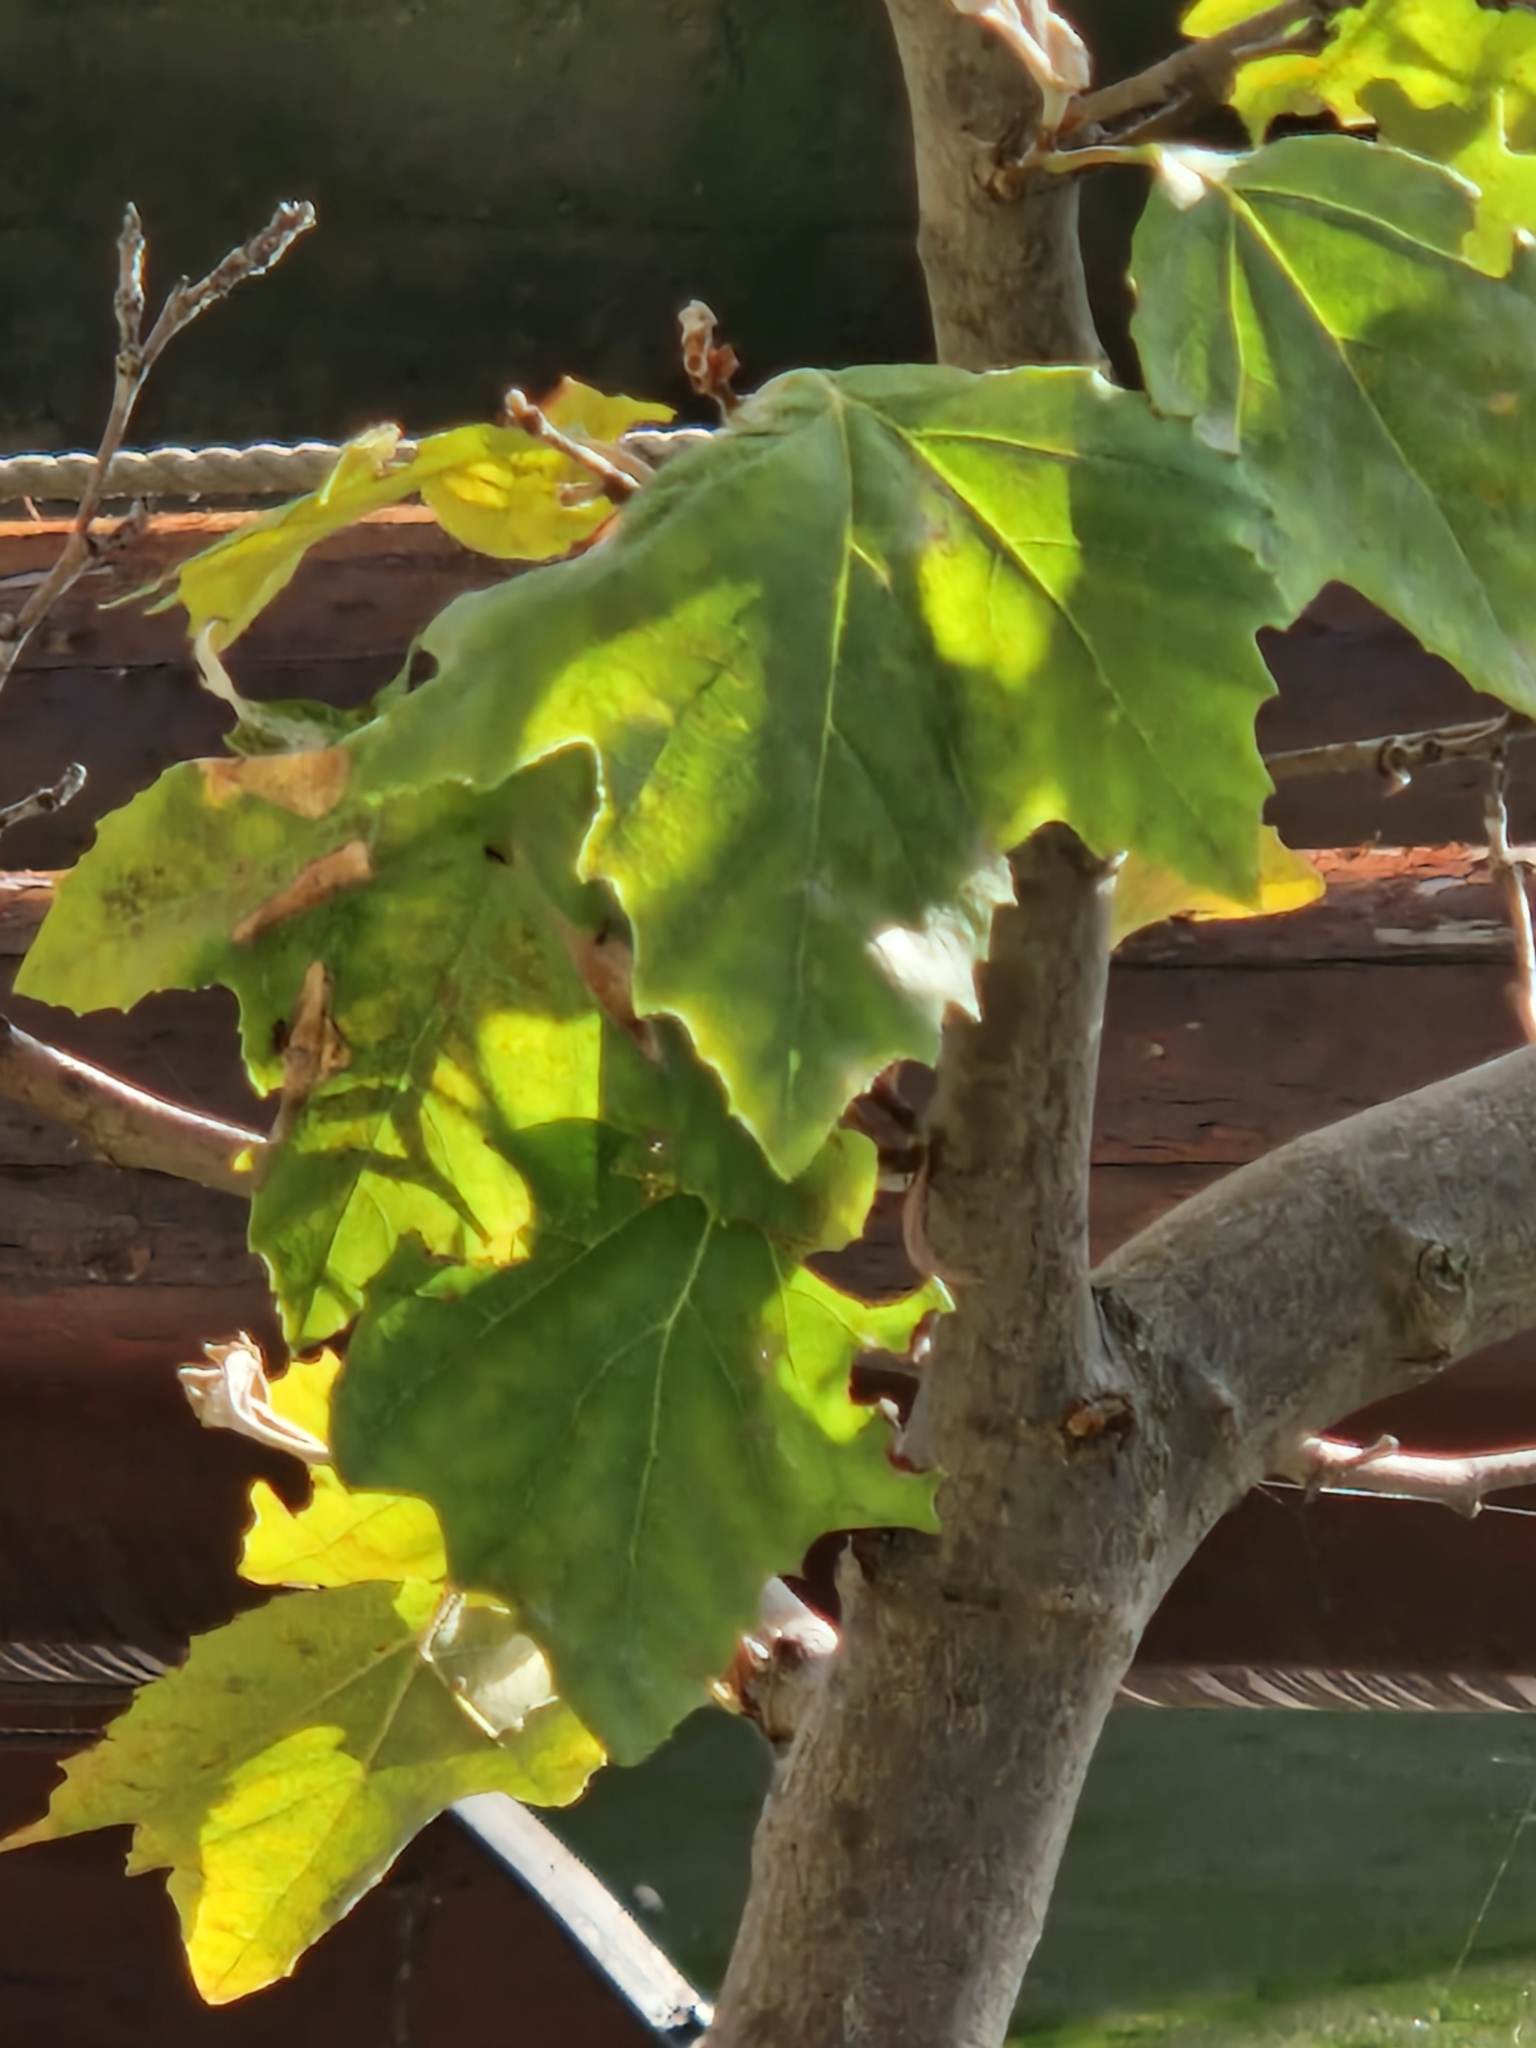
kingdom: Plantae
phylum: Tracheophyta
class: Magnoliopsida
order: Proteales
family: Platanaceae
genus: Platanus
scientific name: Platanus hispanica
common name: London plane
